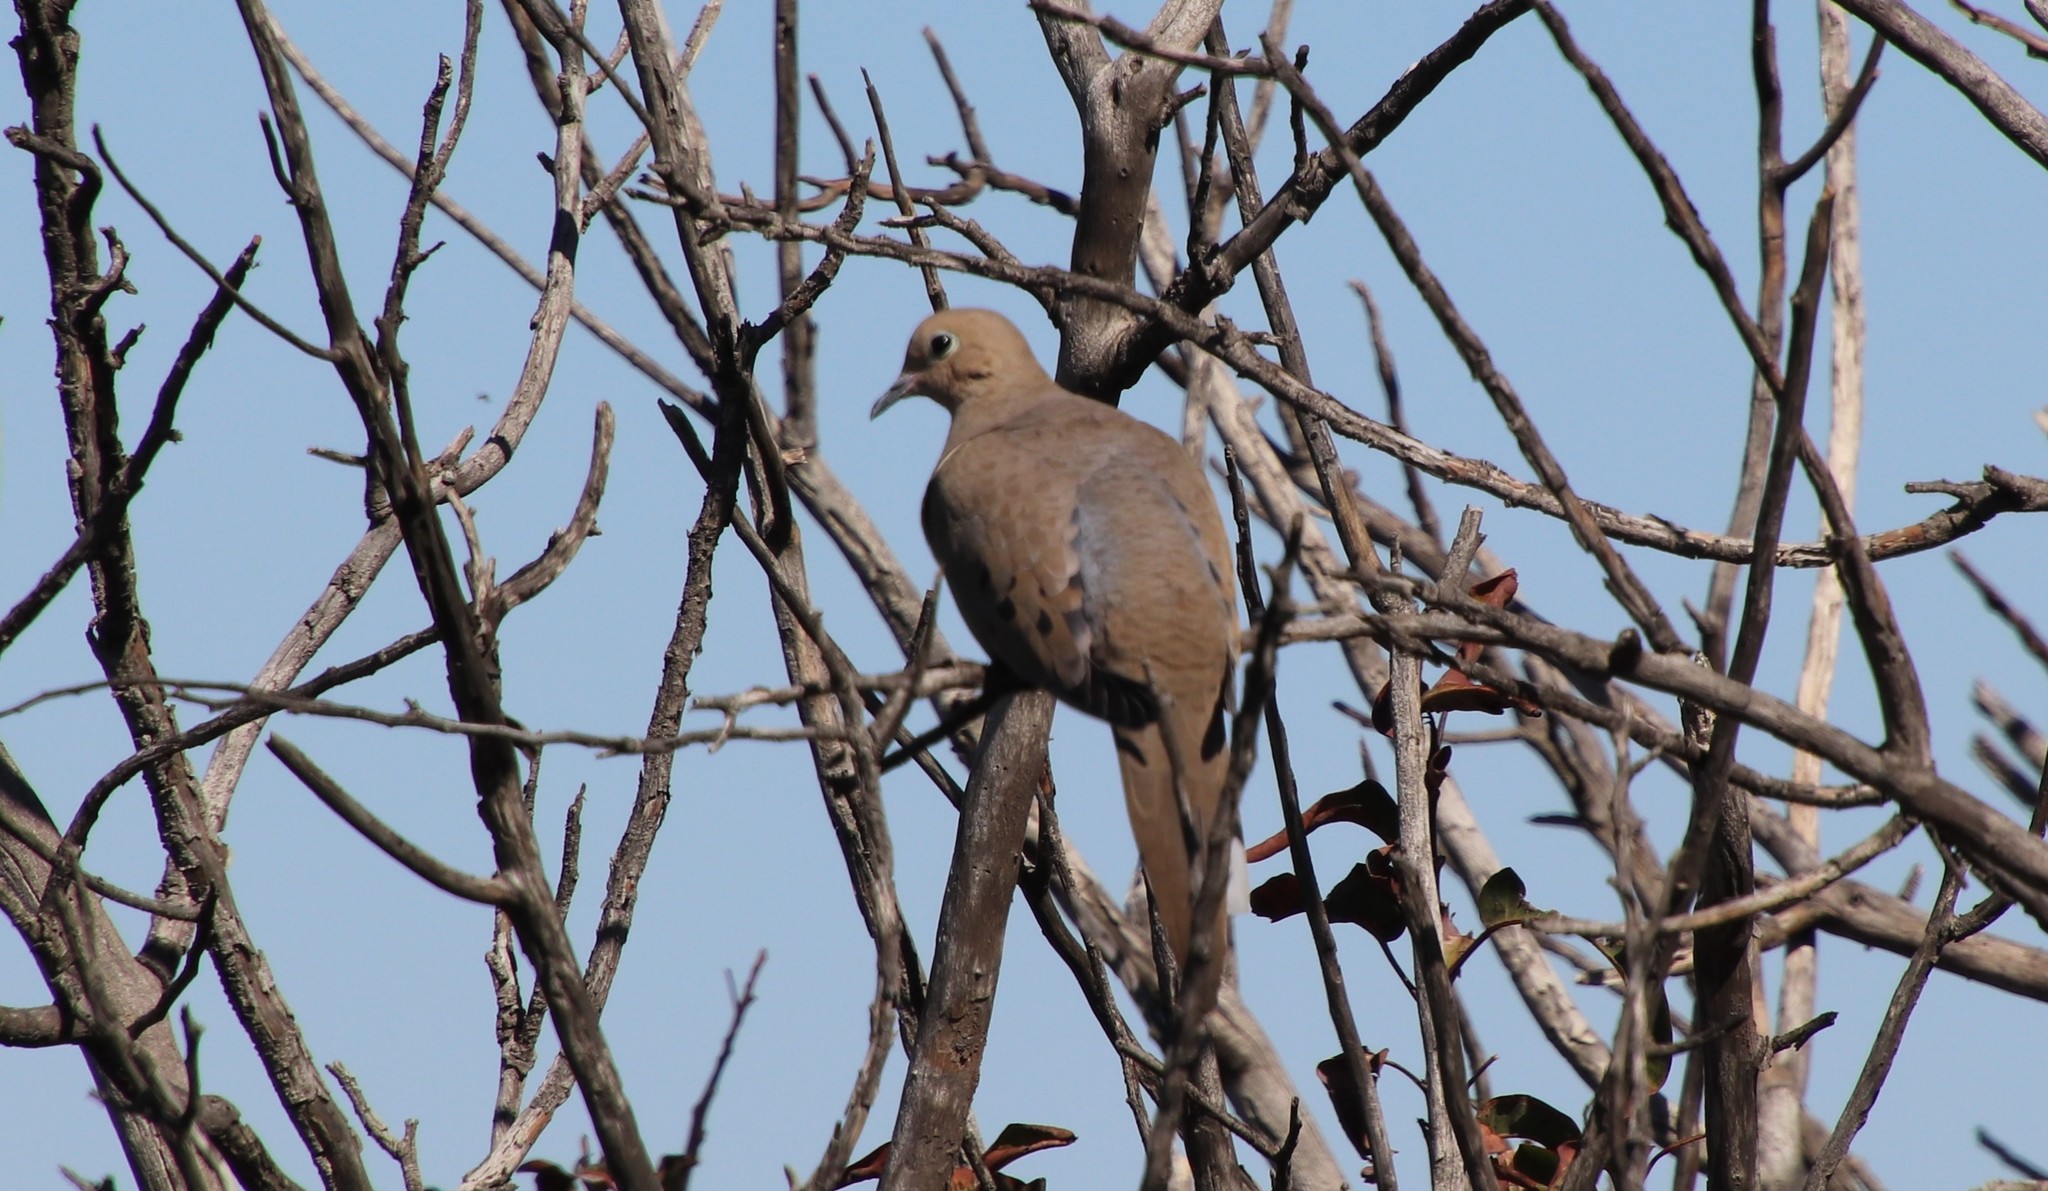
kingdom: Animalia
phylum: Chordata
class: Aves
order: Columbiformes
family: Columbidae
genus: Zenaida
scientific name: Zenaida macroura
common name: Mourning dove
